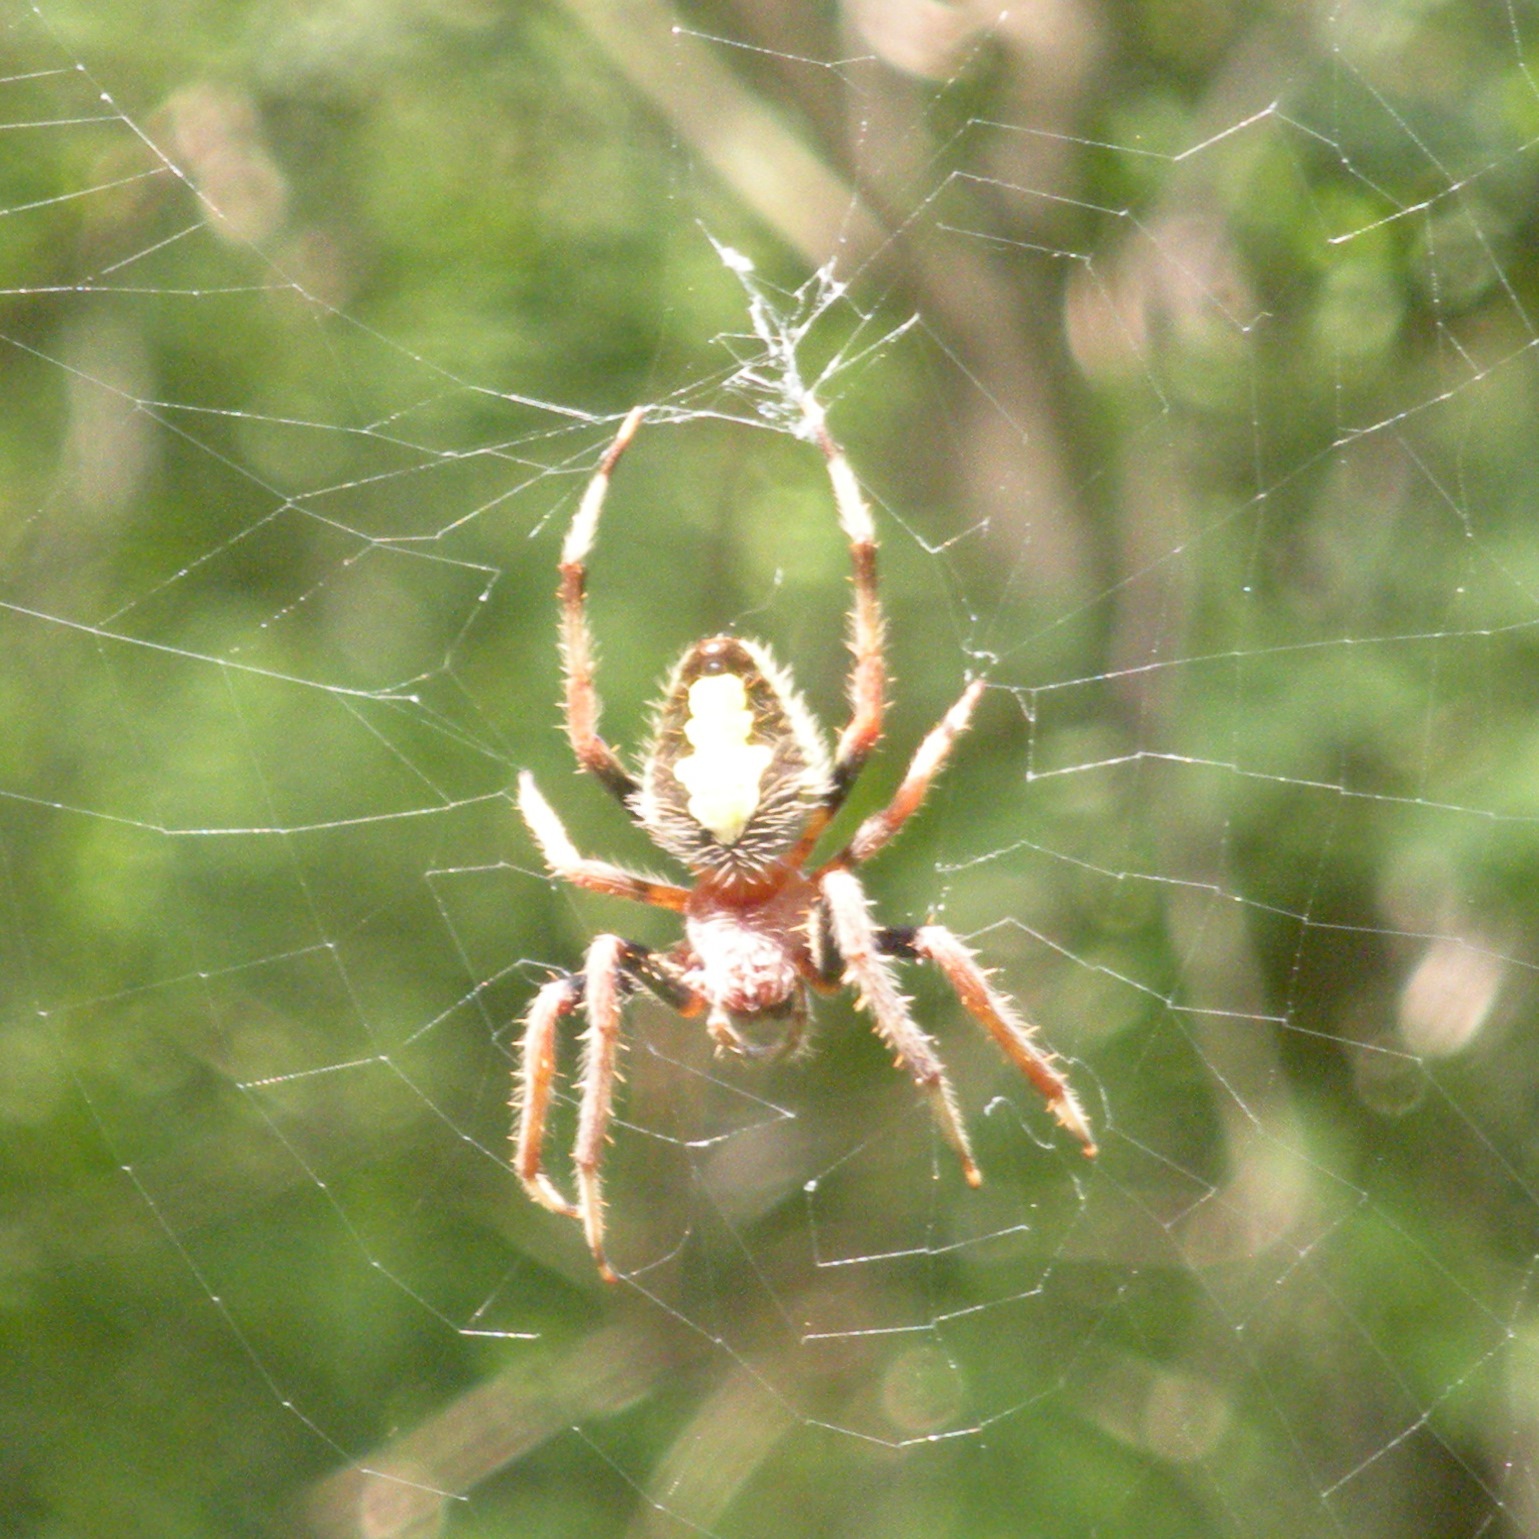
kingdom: Animalia
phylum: Arthropoda
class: Arachnida
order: Araneae
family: Araneidae
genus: Eriophora
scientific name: Eriophora ravilla
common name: Orb weavers
